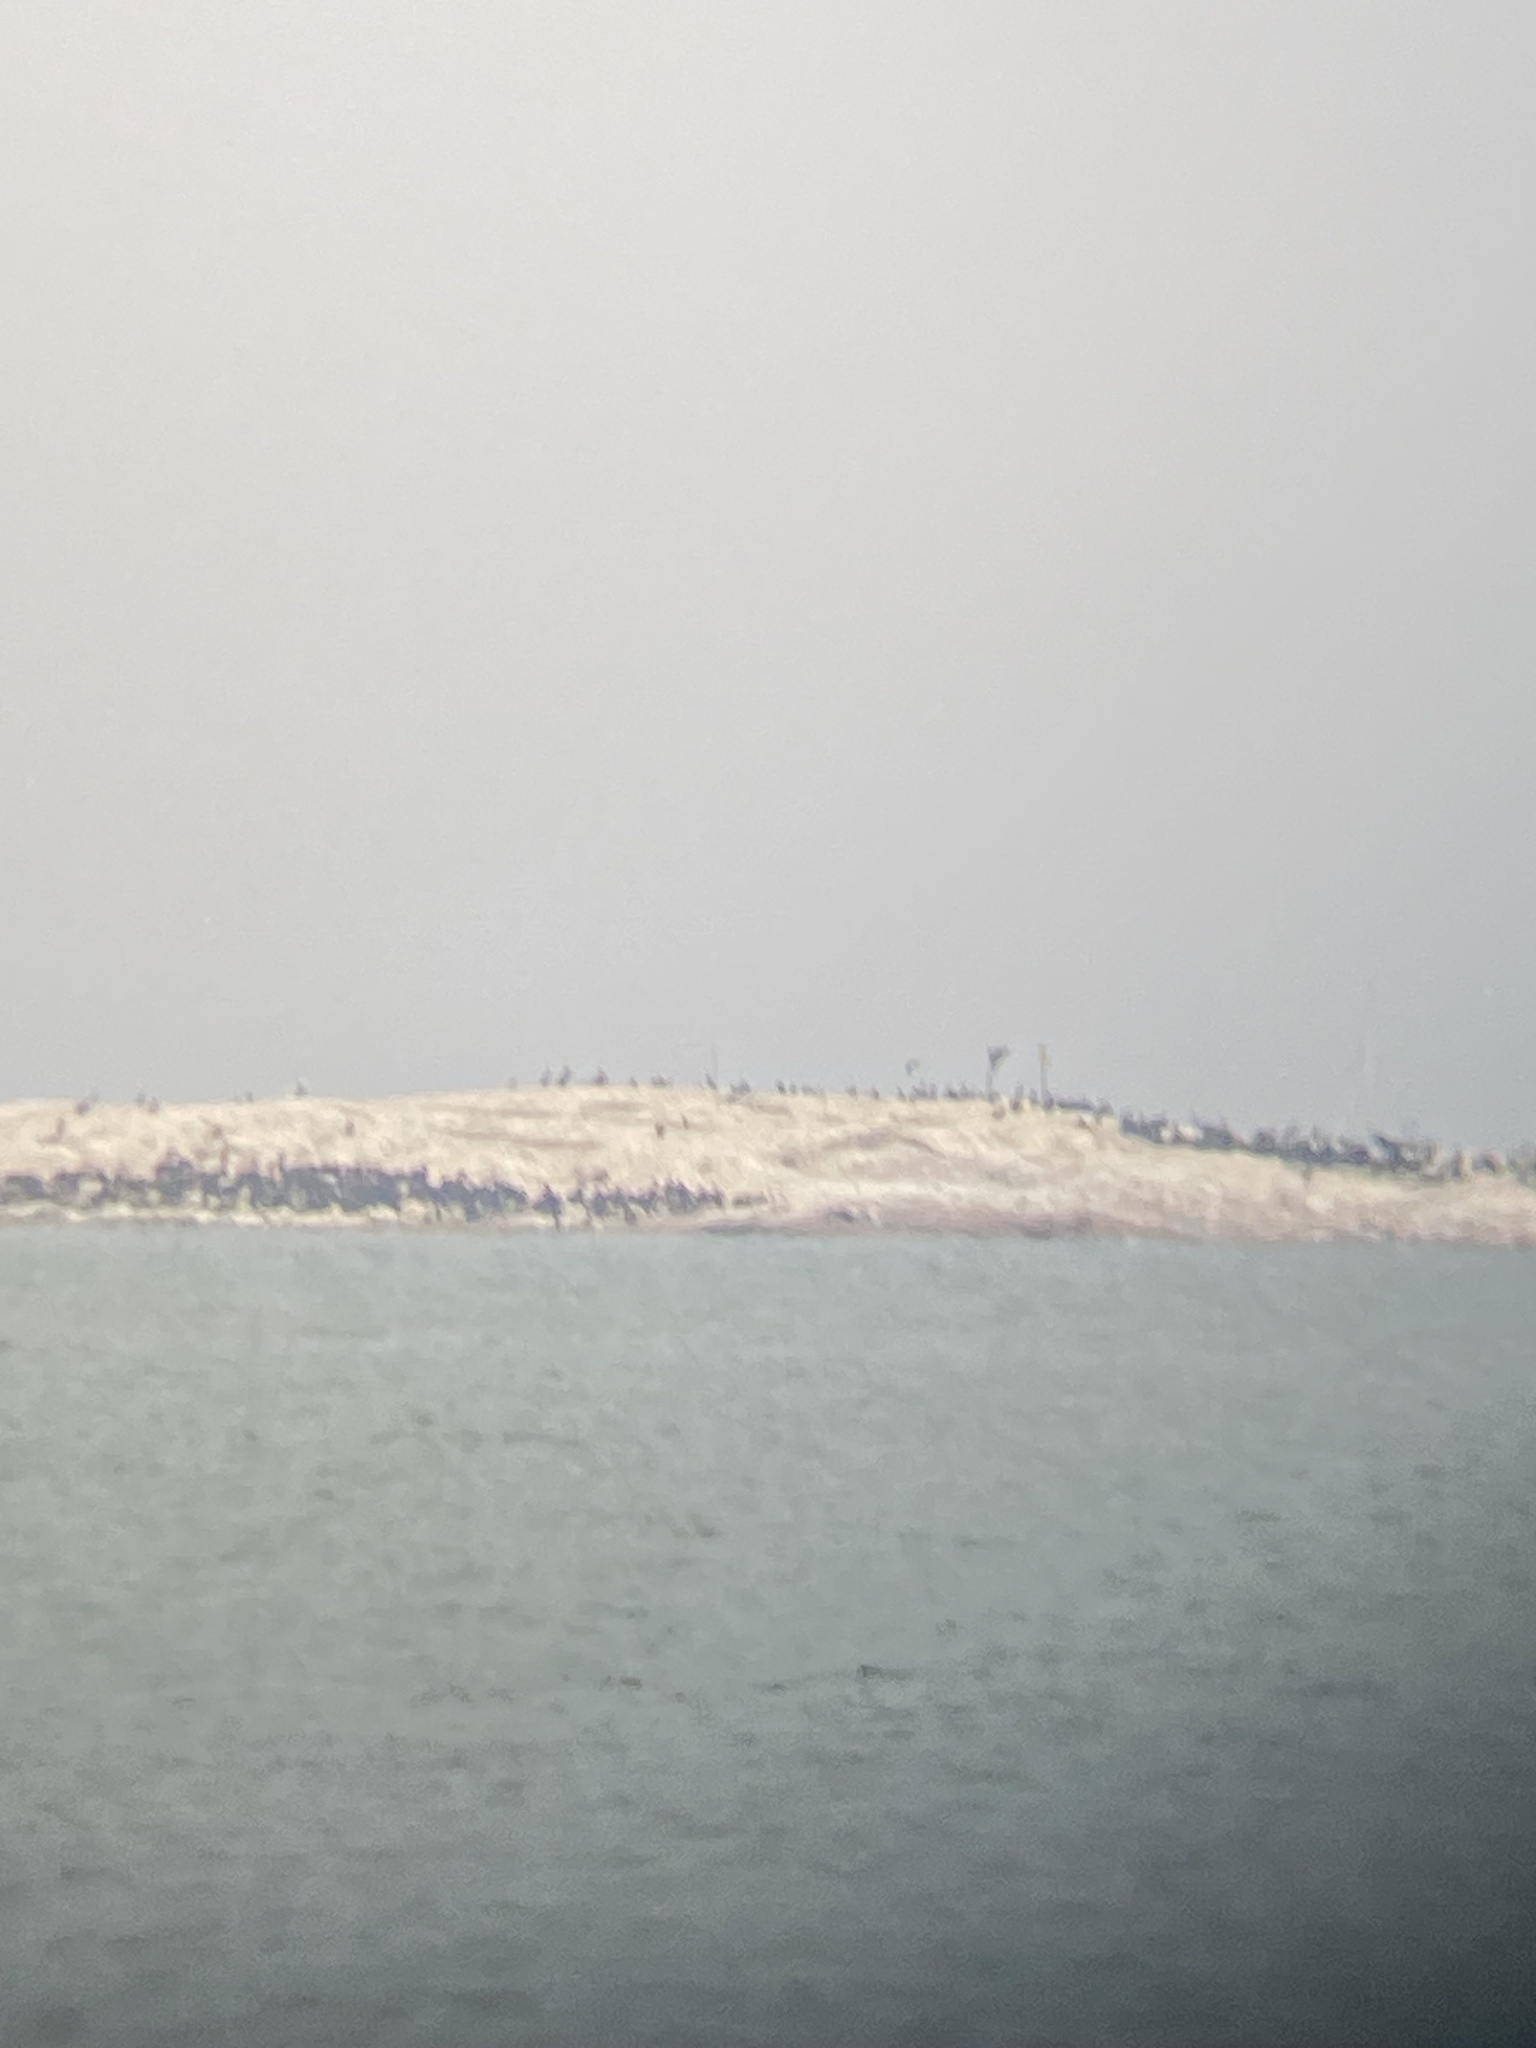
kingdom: Animalia
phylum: Chordata
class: Aves
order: Suliformes
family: Phalacrocoracidae
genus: Phalacrocorax
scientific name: Phalacrocorax carbo
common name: Great cormorant
